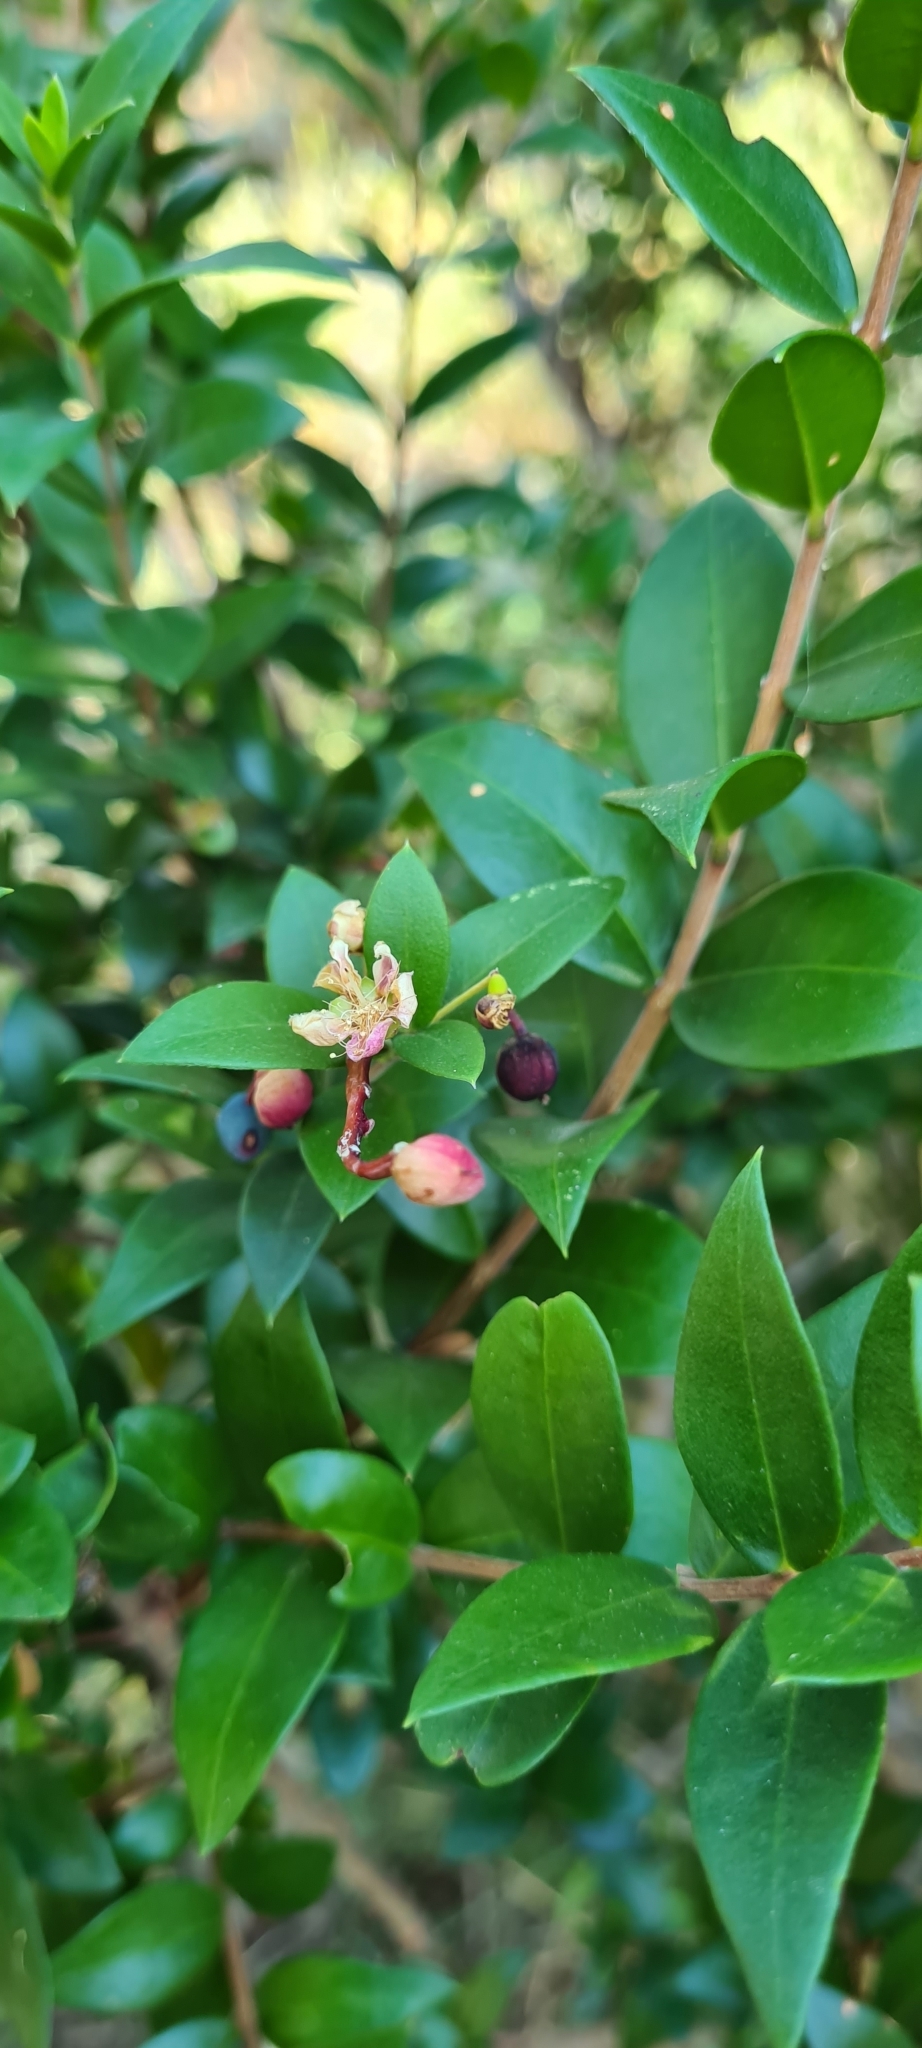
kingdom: Plantae
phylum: Tracheophyta
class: Magnoliopsida
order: Myrtales
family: Myrtaceae
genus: Myrtus
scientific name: Myrtus communis
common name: Myrtle
